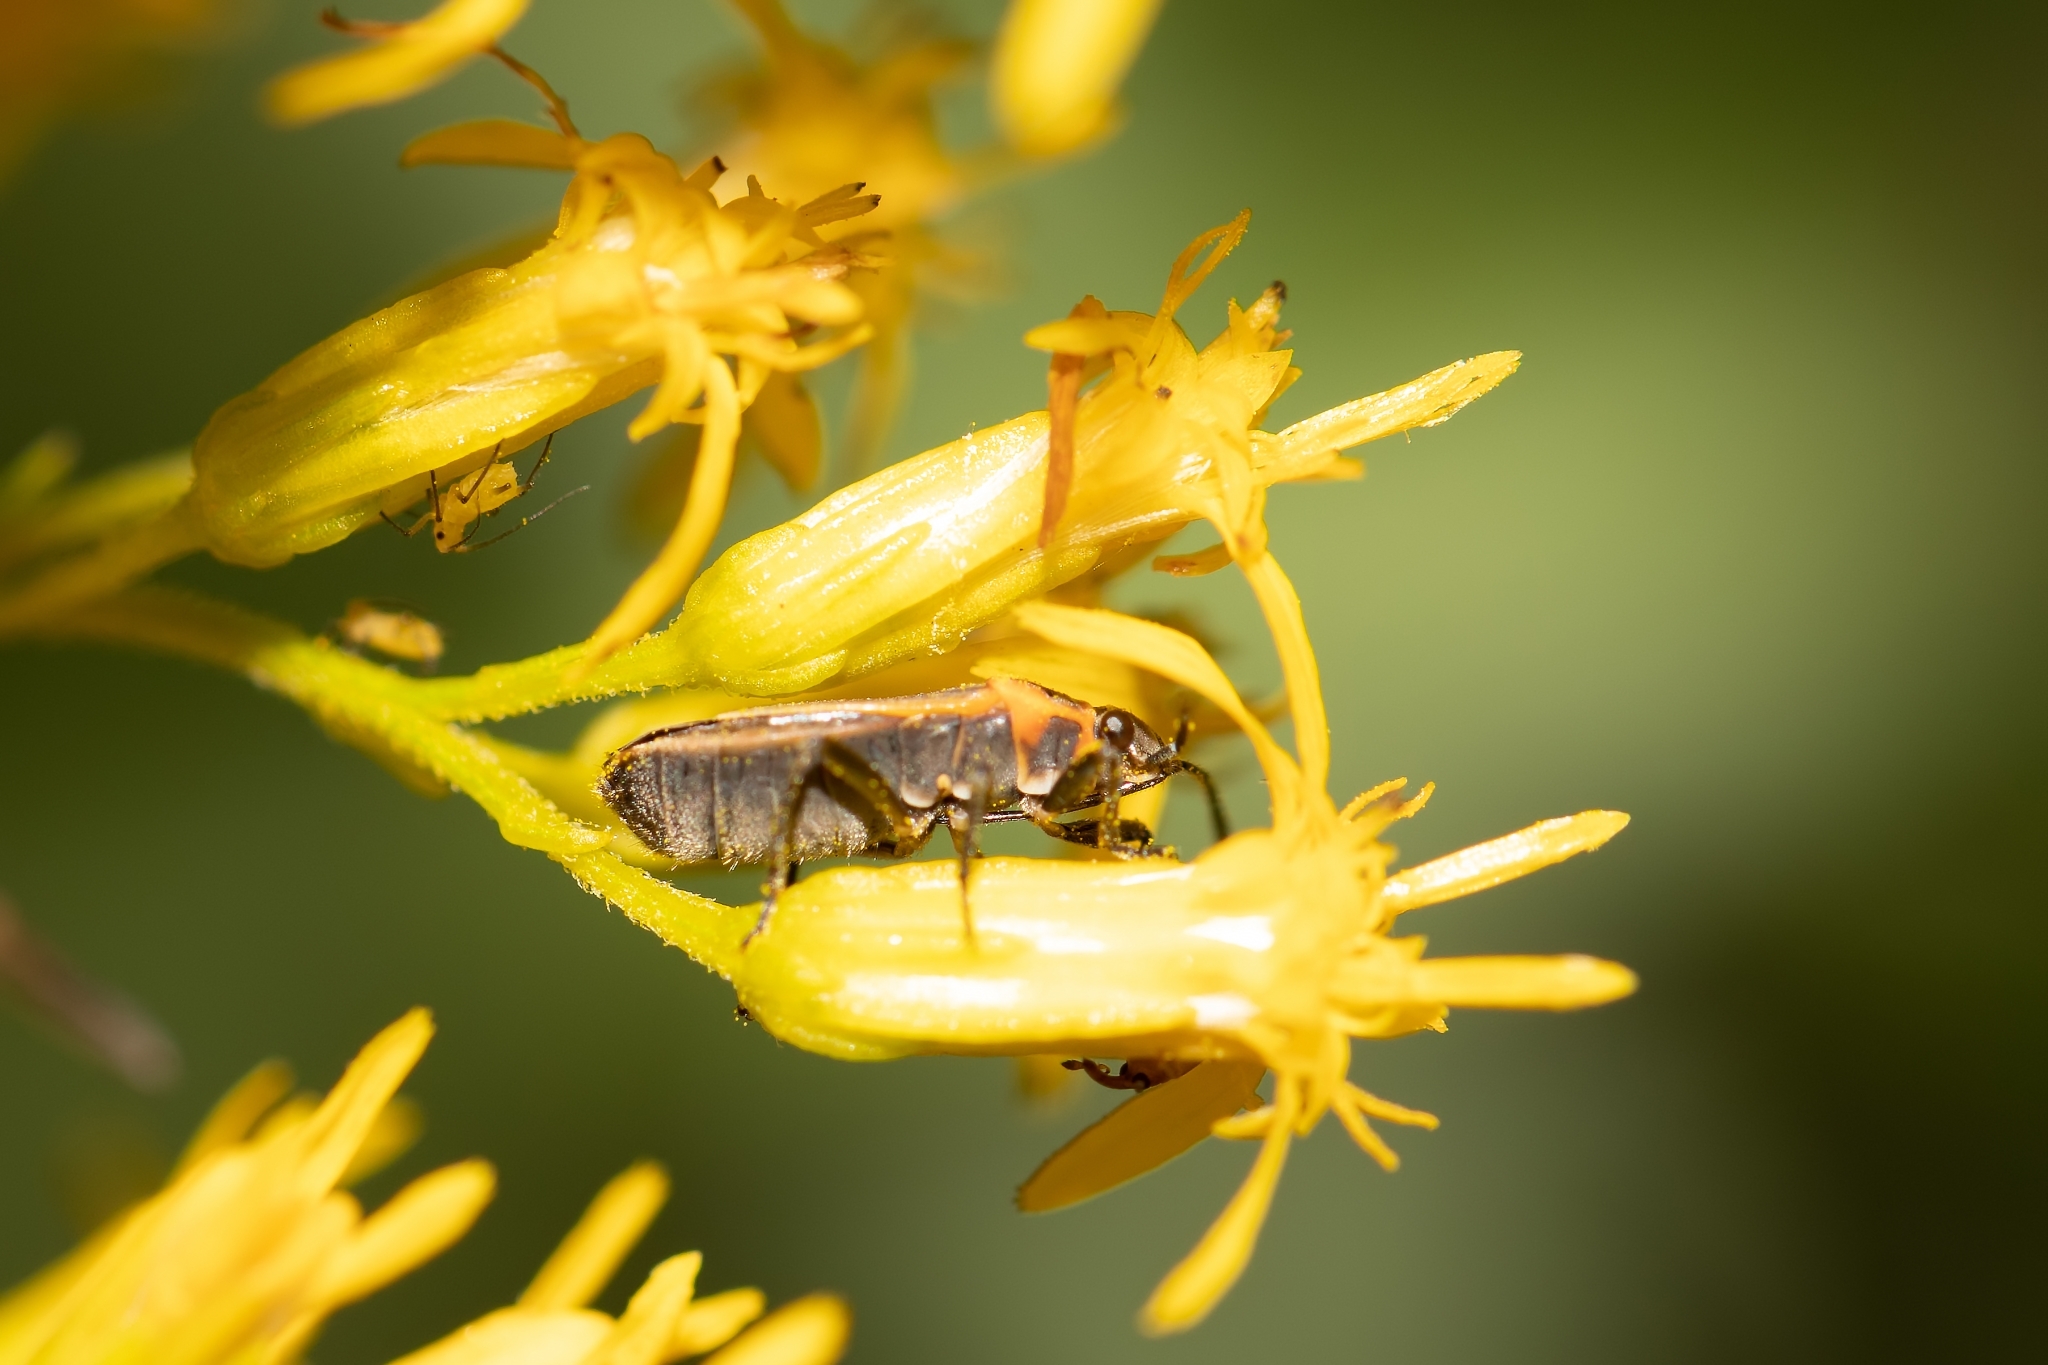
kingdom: Animalia
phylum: Arthropoda
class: Insecta
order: Hemiptera
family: Lygaeidae
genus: Ochrimnus
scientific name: Ochrimnus lineoloides
